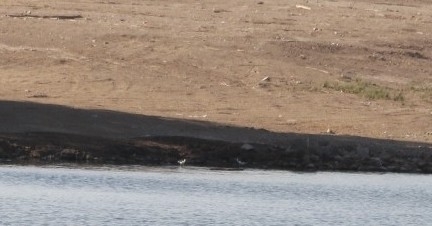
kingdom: Animalia
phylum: Chordata
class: Aves
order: Charadriiformes
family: Recurvirostridae
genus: Himantopus
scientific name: Himantopus mexicanus
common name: Black-necked stilt
